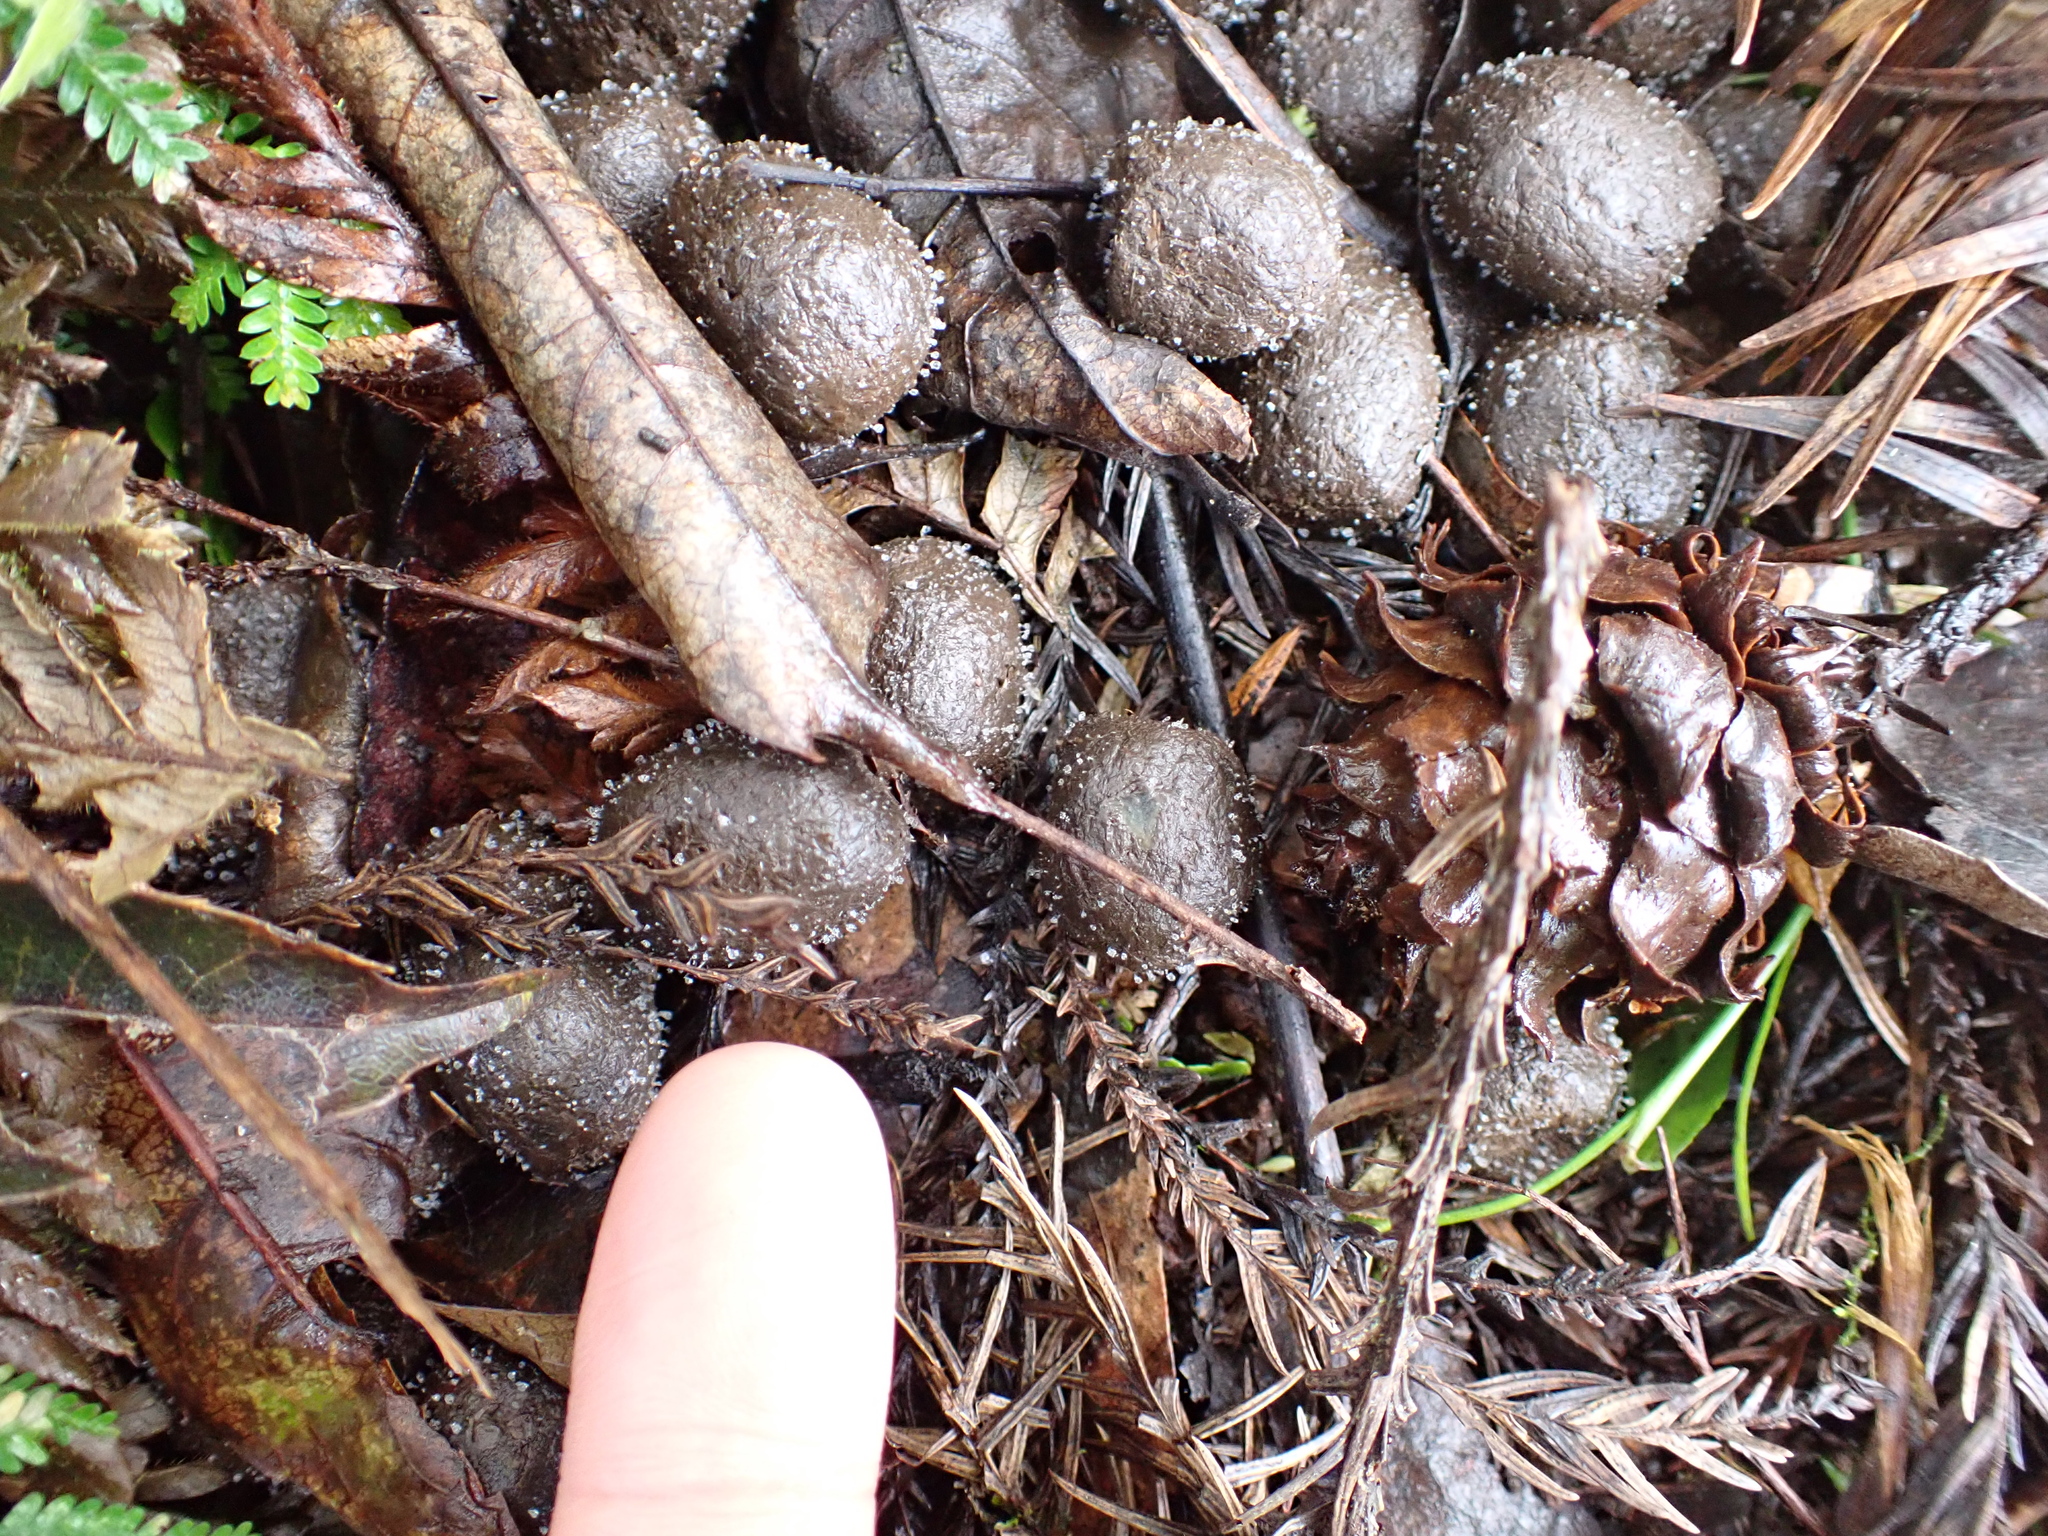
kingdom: Animalia
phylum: Chordata
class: Mammalia
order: Artiodactyla
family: Cervidae
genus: Rusa
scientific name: Rusa unicolor
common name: Sambar
